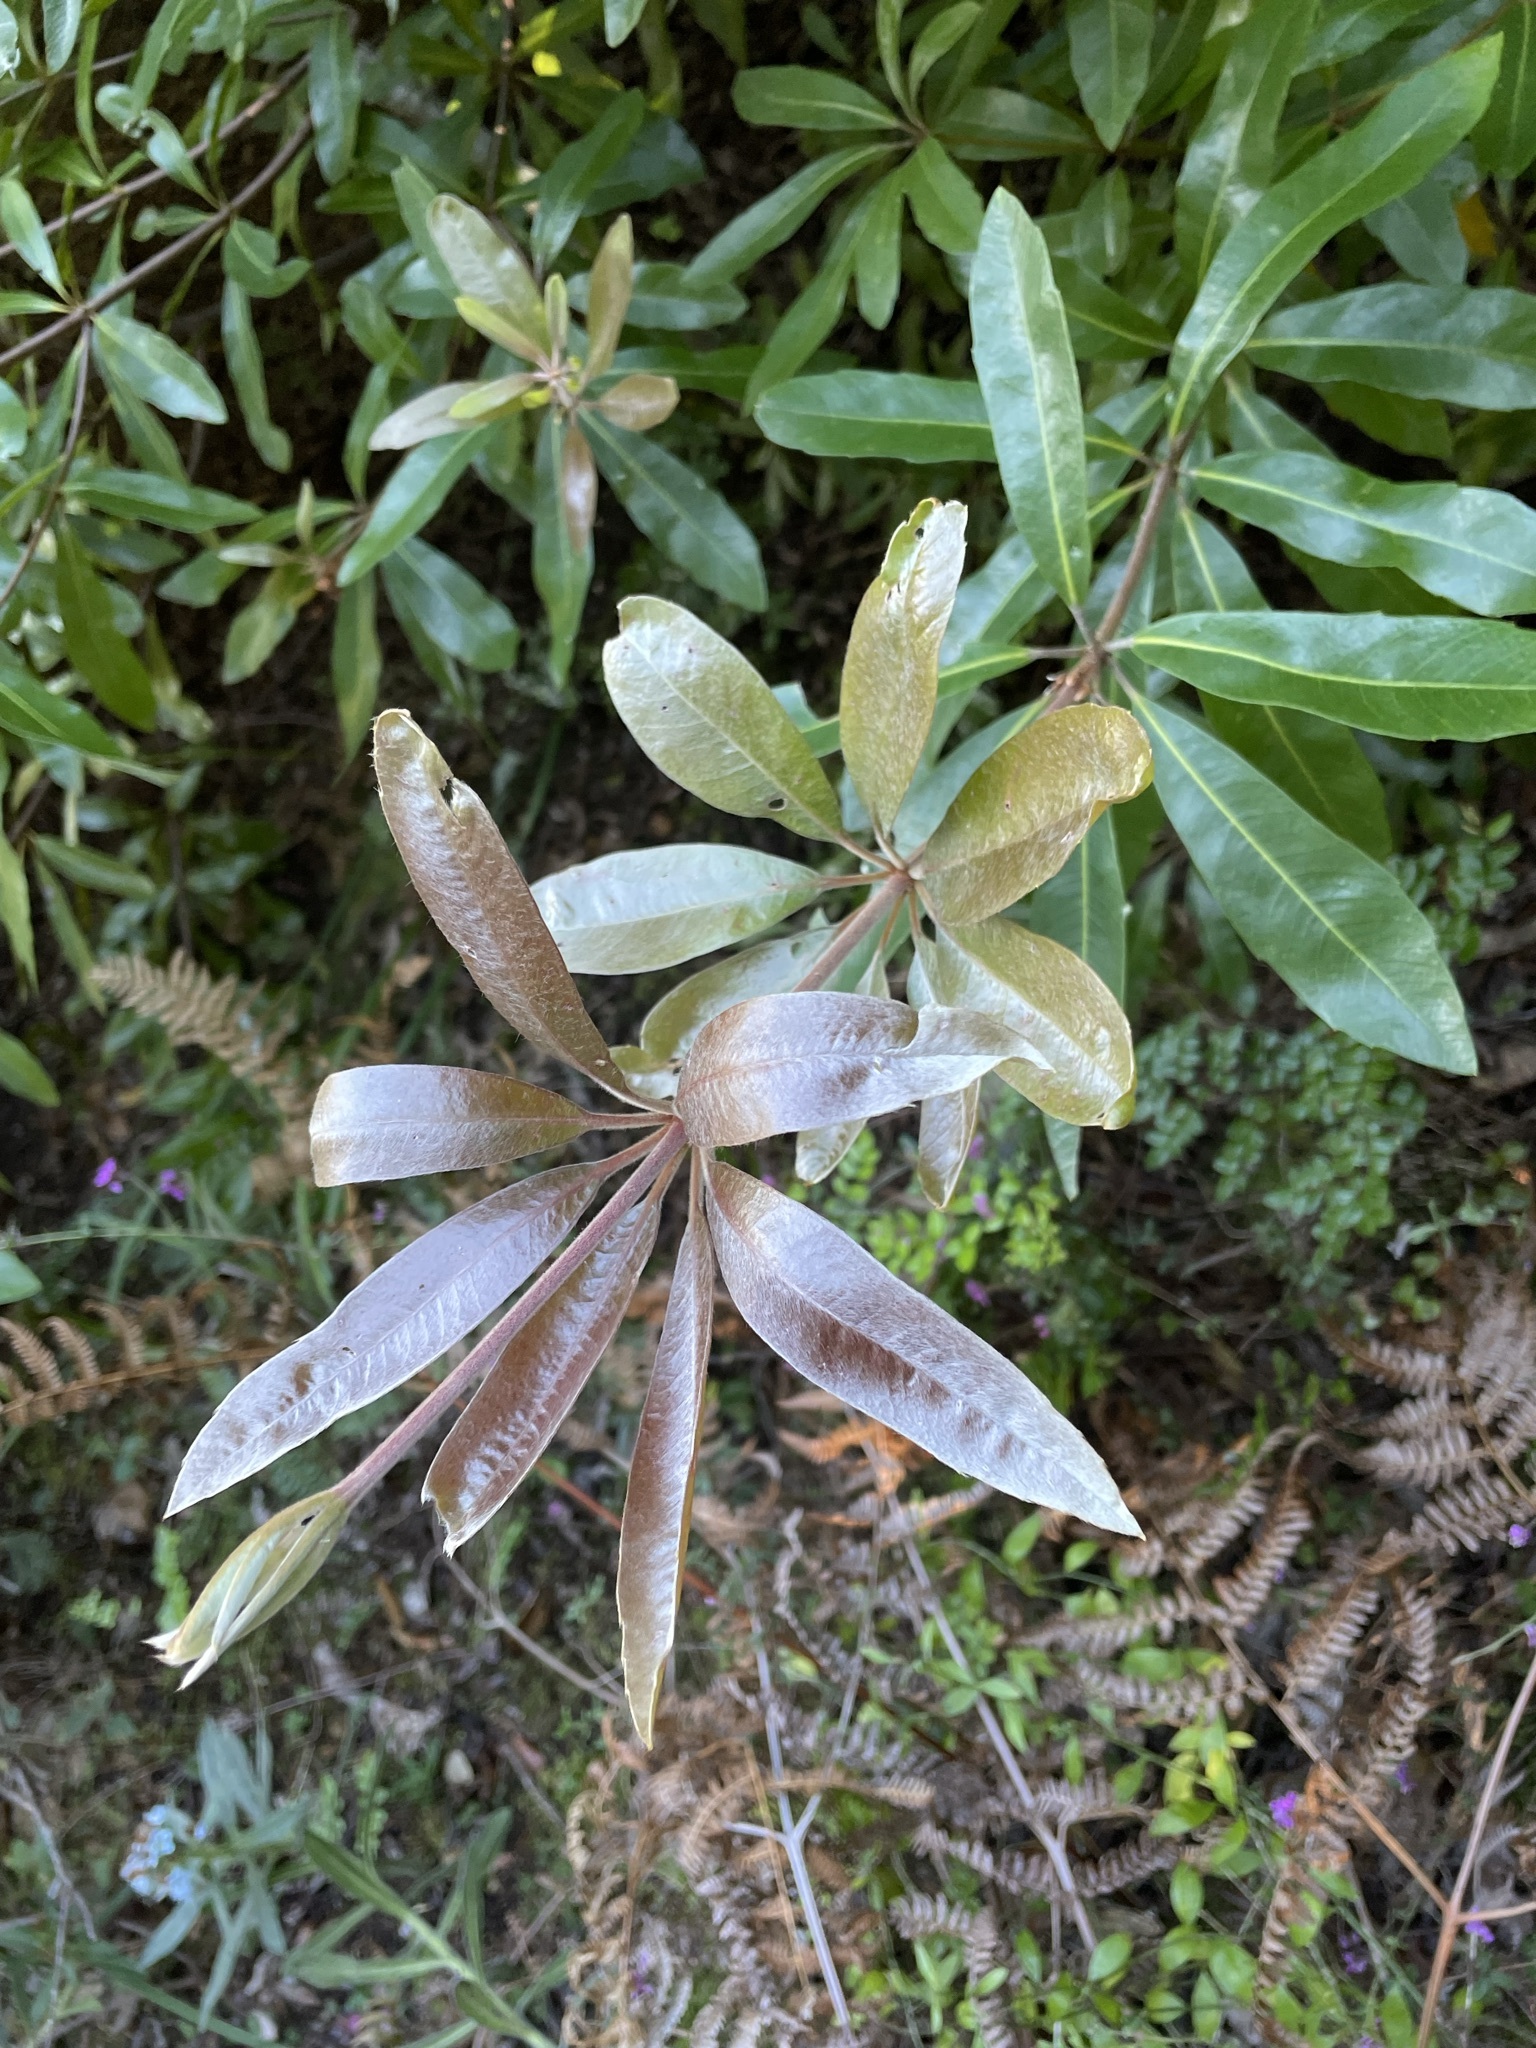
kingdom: Plantae
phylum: Tracheophyta
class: Magnoliopsida
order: Proteales
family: Proteaceae
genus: Brabejum
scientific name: Brabejum stellatifolium
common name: Wild almond
